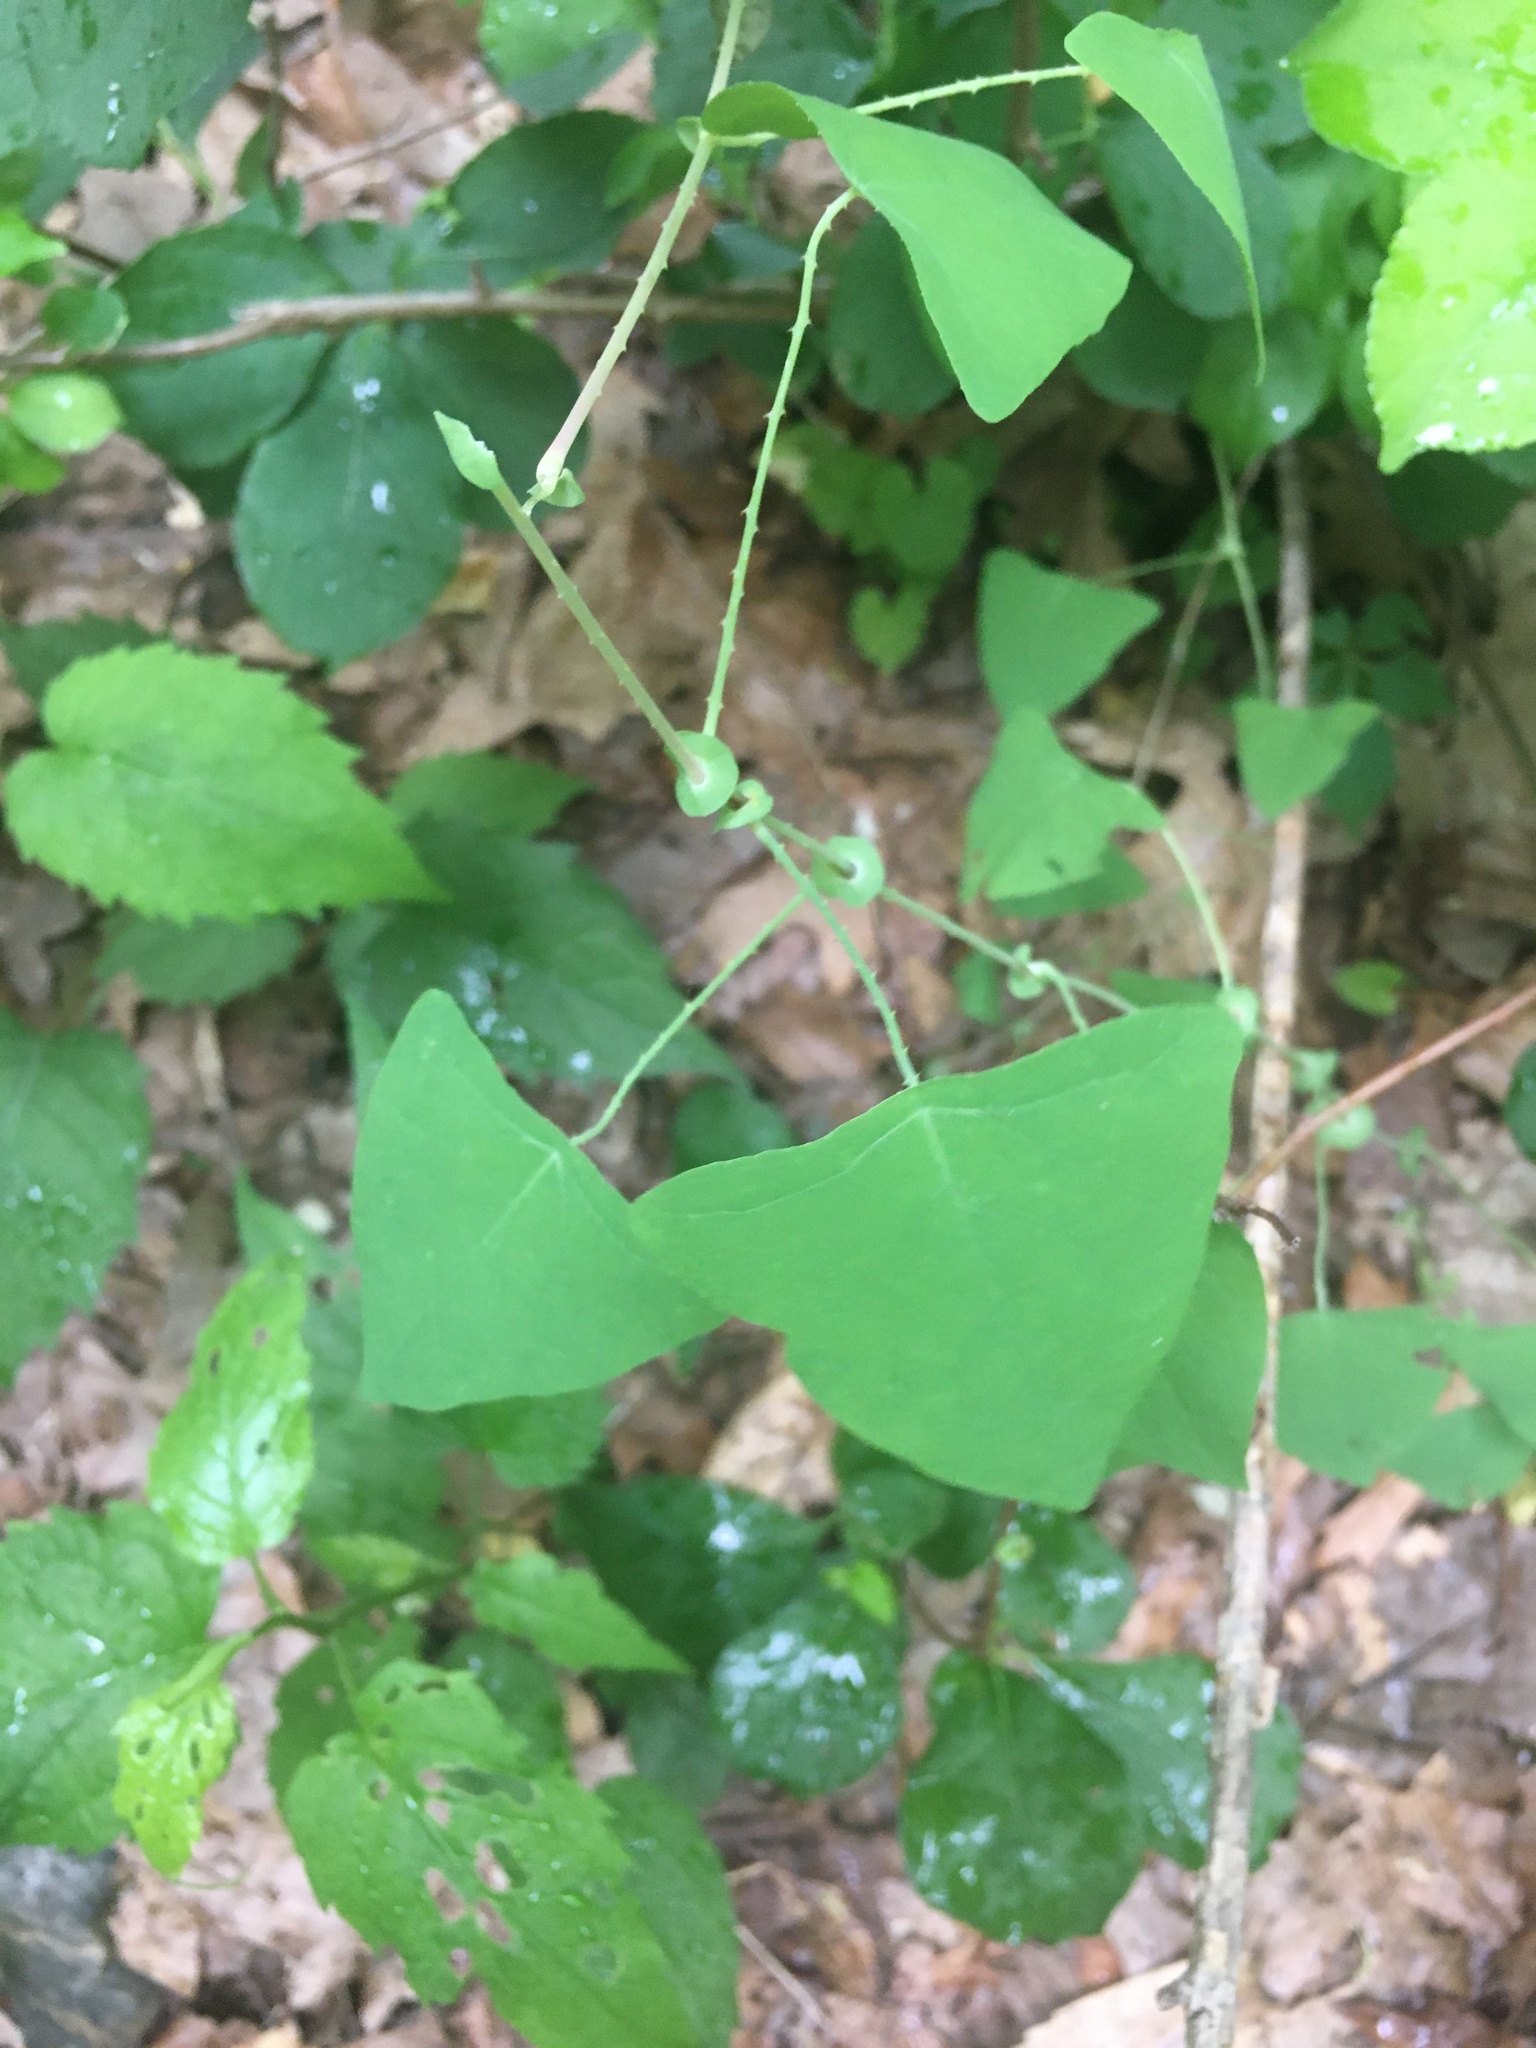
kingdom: Plantae
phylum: Tracheophyta
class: Magnoliopsida
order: Caryophyllales
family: Polygonaceae
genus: Persicaria
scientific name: Persicaria perfoliata
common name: Asiatic tearthumb
